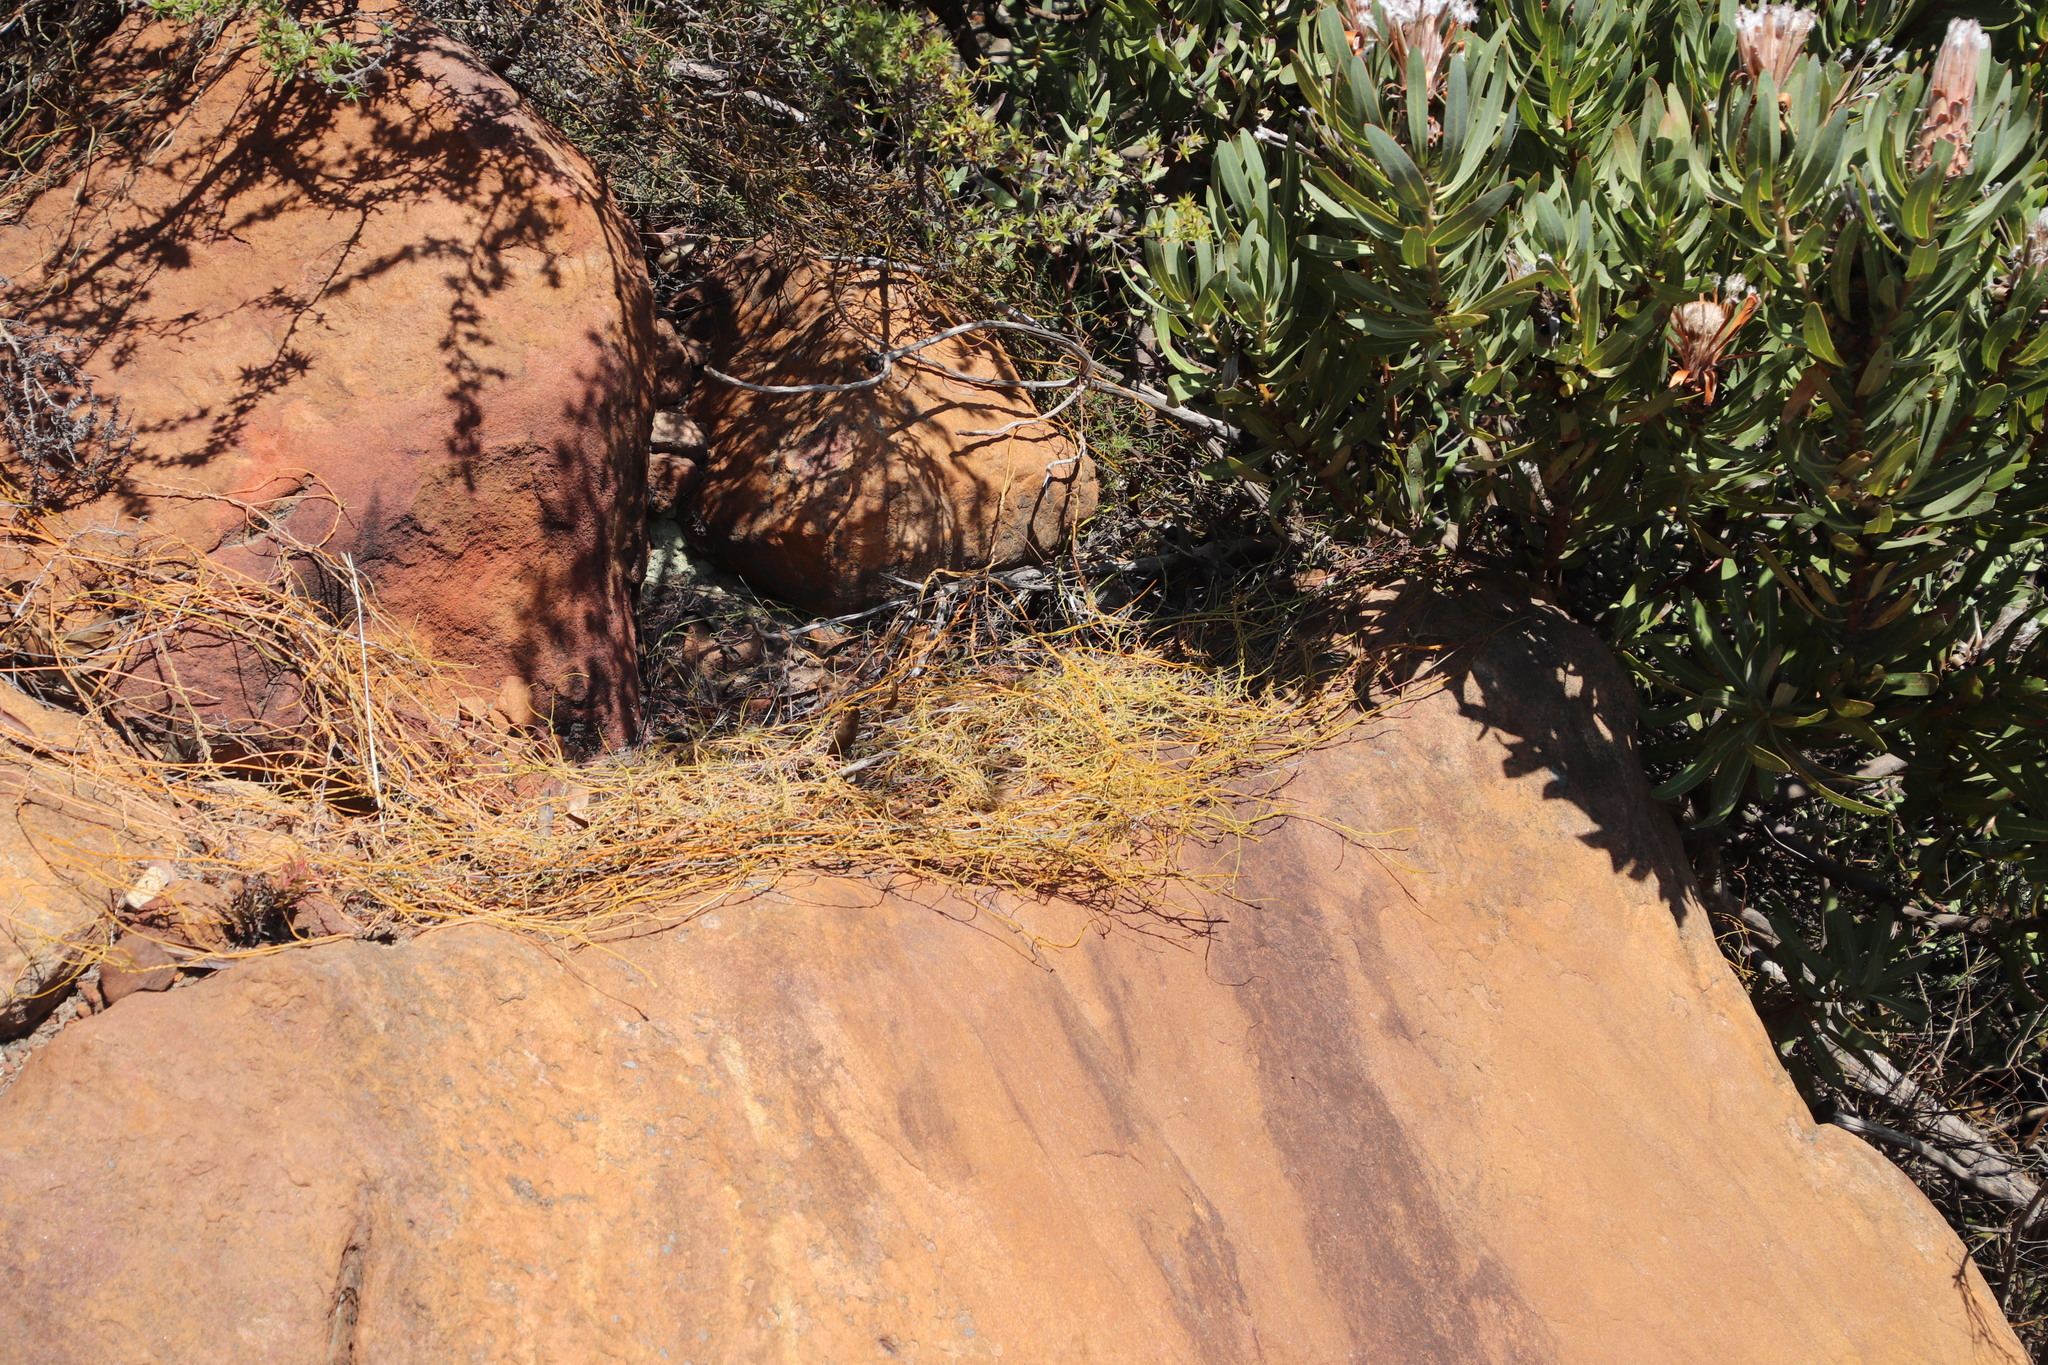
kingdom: Plantae
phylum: Tracheophyta
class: Magnoliopsida
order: Laurales
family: Lauraceae
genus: Cassytha
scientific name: Cassytha ciliolata
